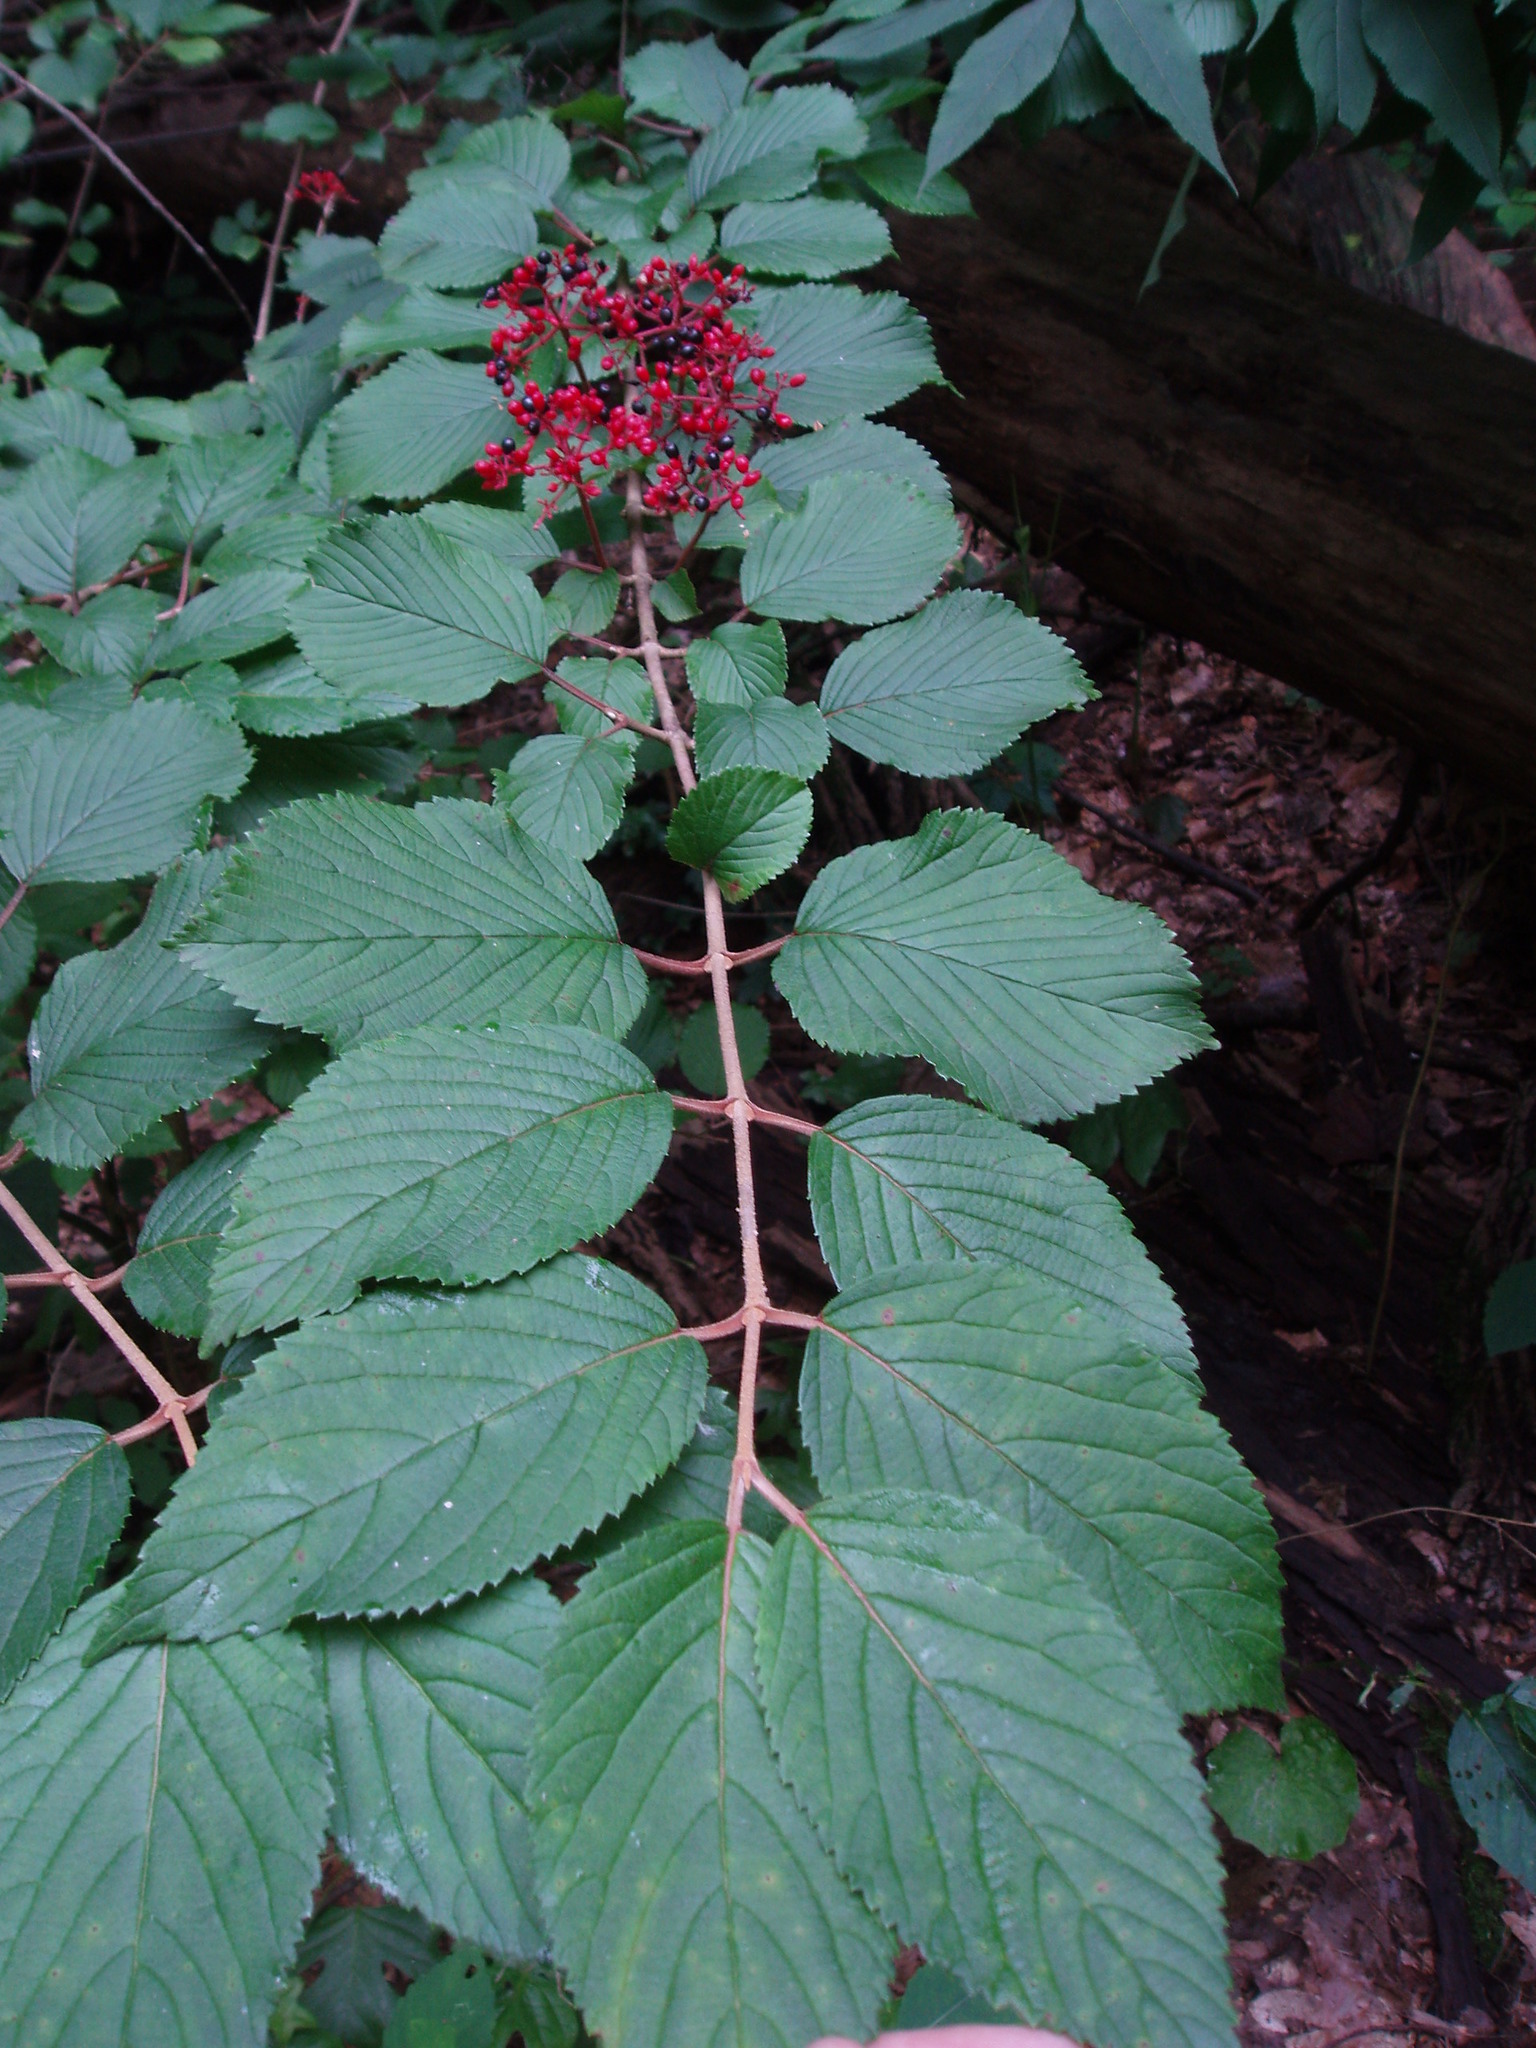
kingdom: Plantae
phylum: Tracheophyta
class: Magnoliopsida
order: Dipsacales
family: Viburnaceae
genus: Viburnum
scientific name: Viburnum plicatum
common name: Japanese snowball
